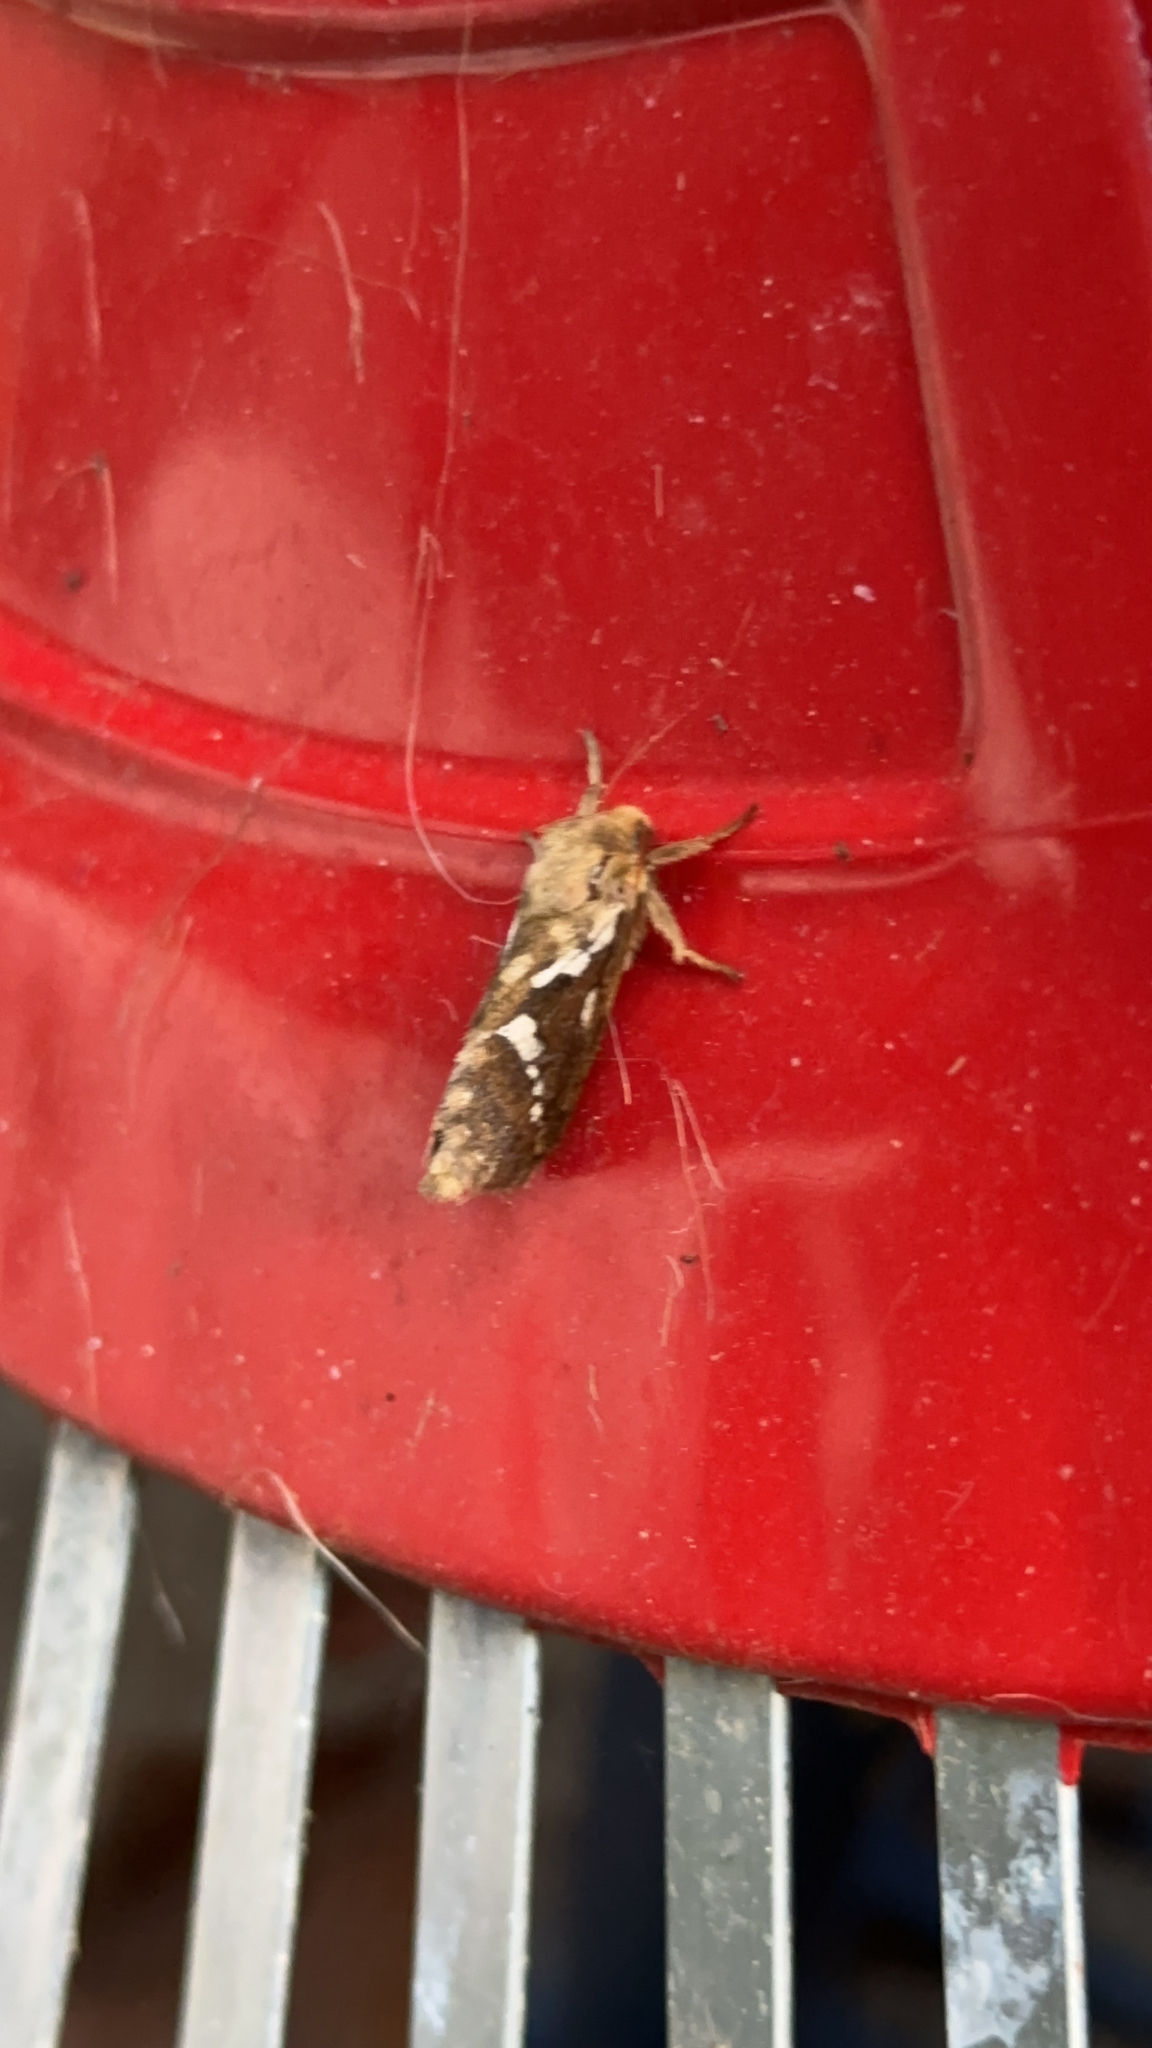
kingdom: Animalia
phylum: Arthropoda
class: Insecta
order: Lepidoptera
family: Hepialidae
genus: Korscheltellus
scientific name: Korscheltellus lupulina
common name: Common swift
